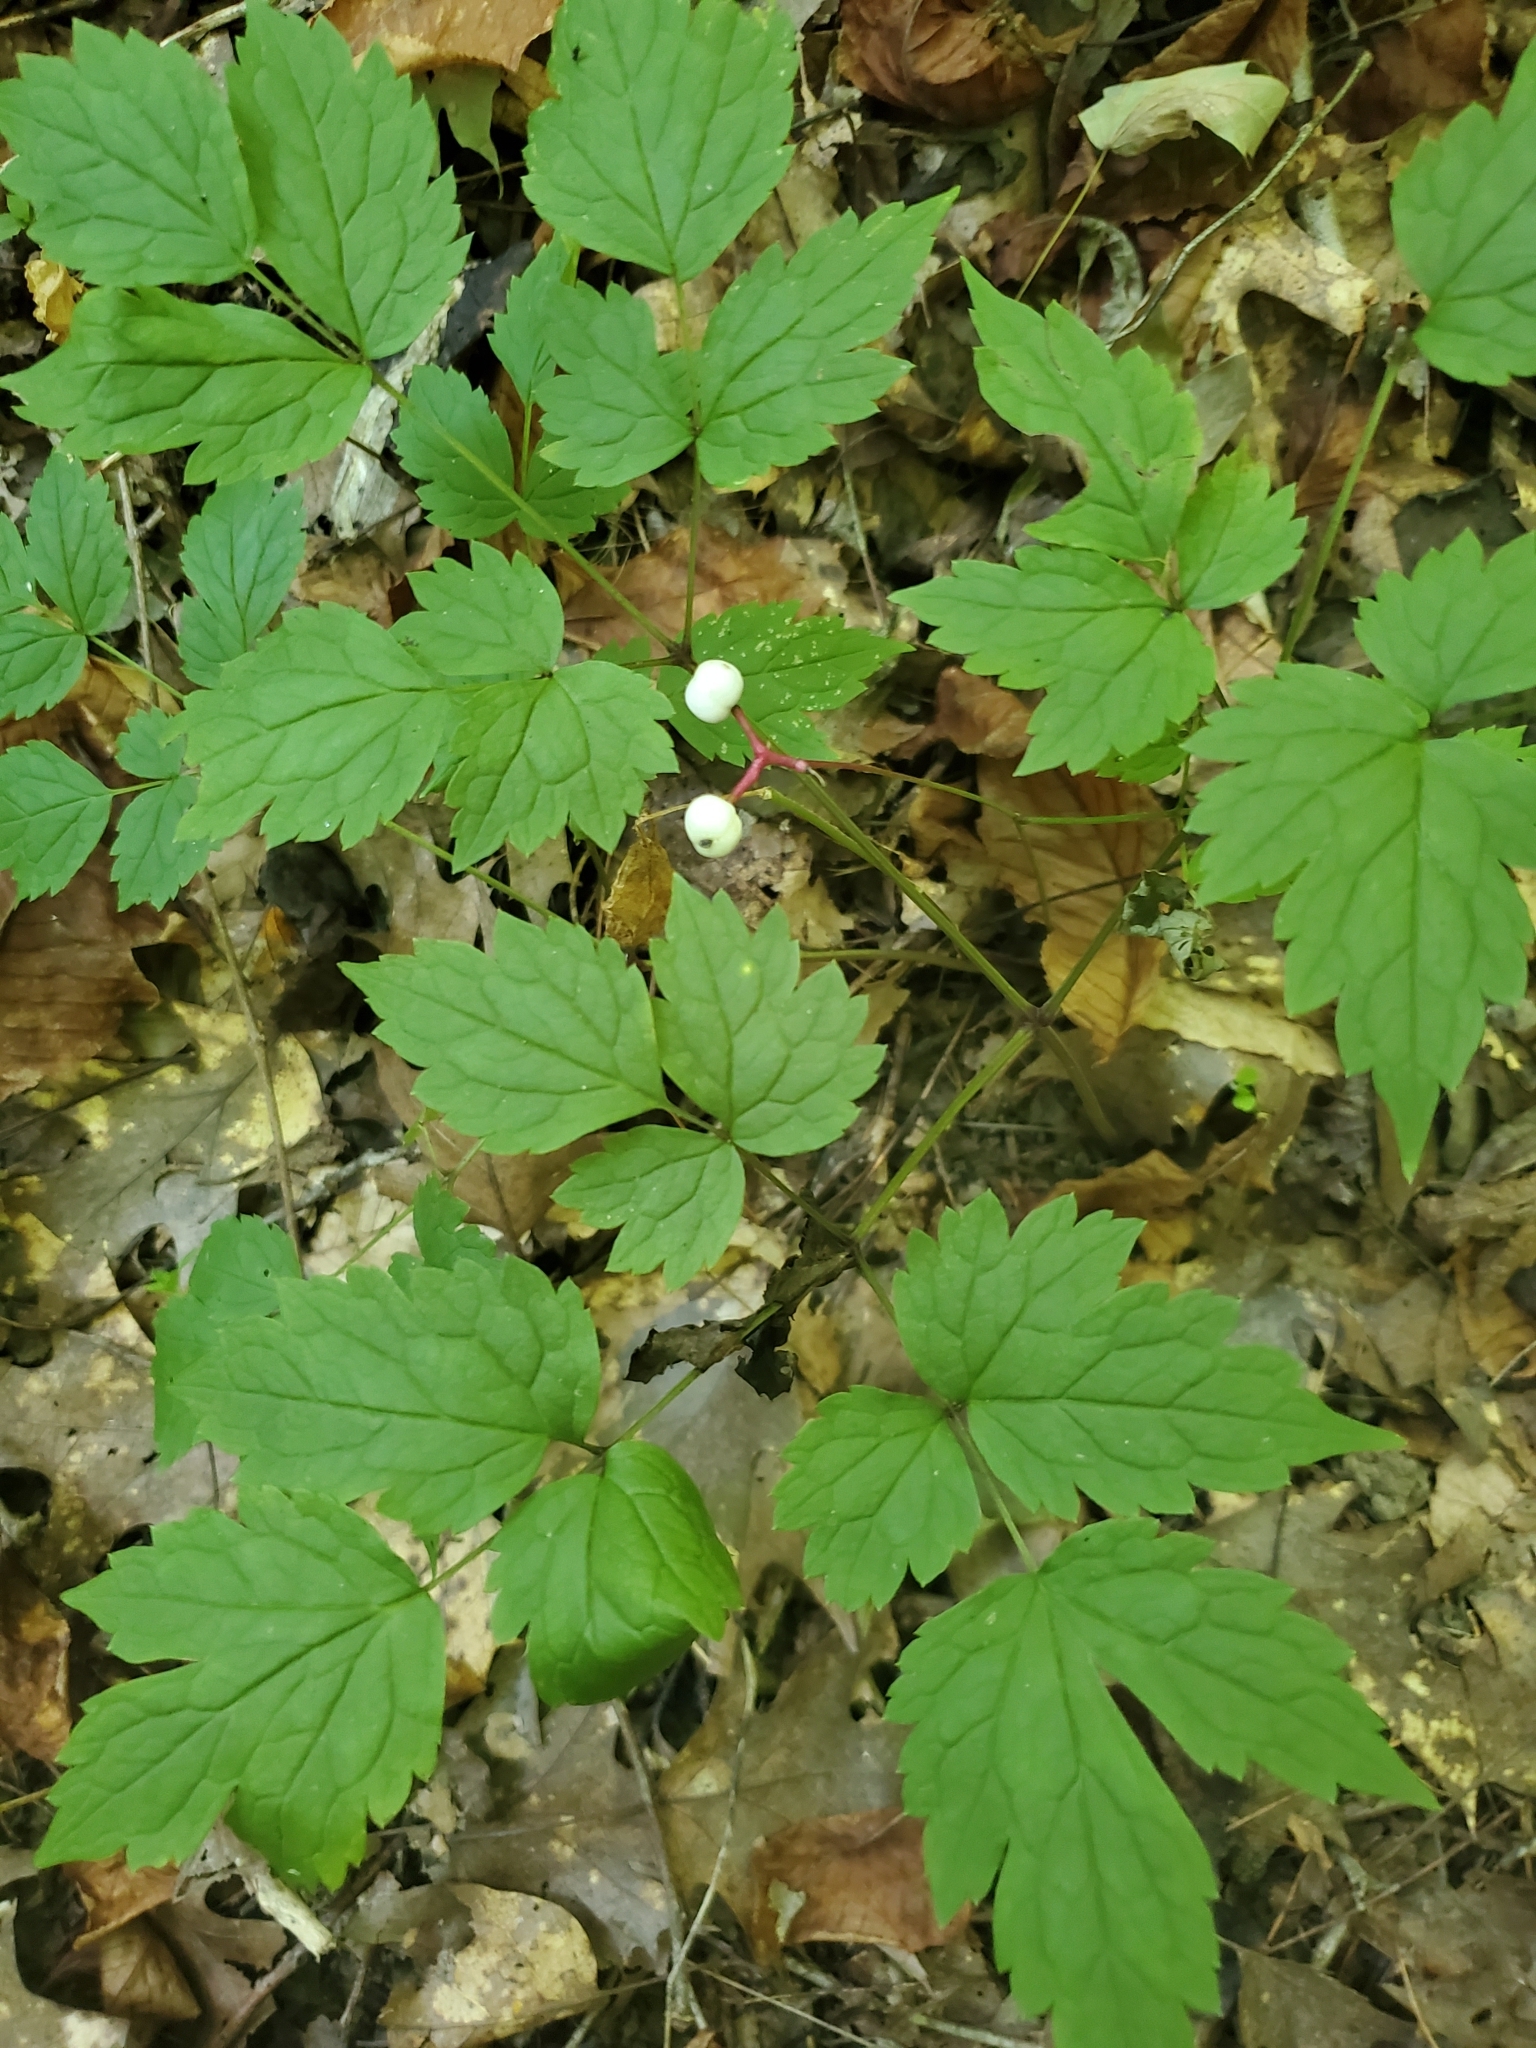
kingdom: Plantae
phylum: Tracheophyta
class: Magnoliopsida
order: Ranunculales
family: Ranunculaceae
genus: Actaea
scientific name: Actaea pachypoda
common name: Doll's-eyes
